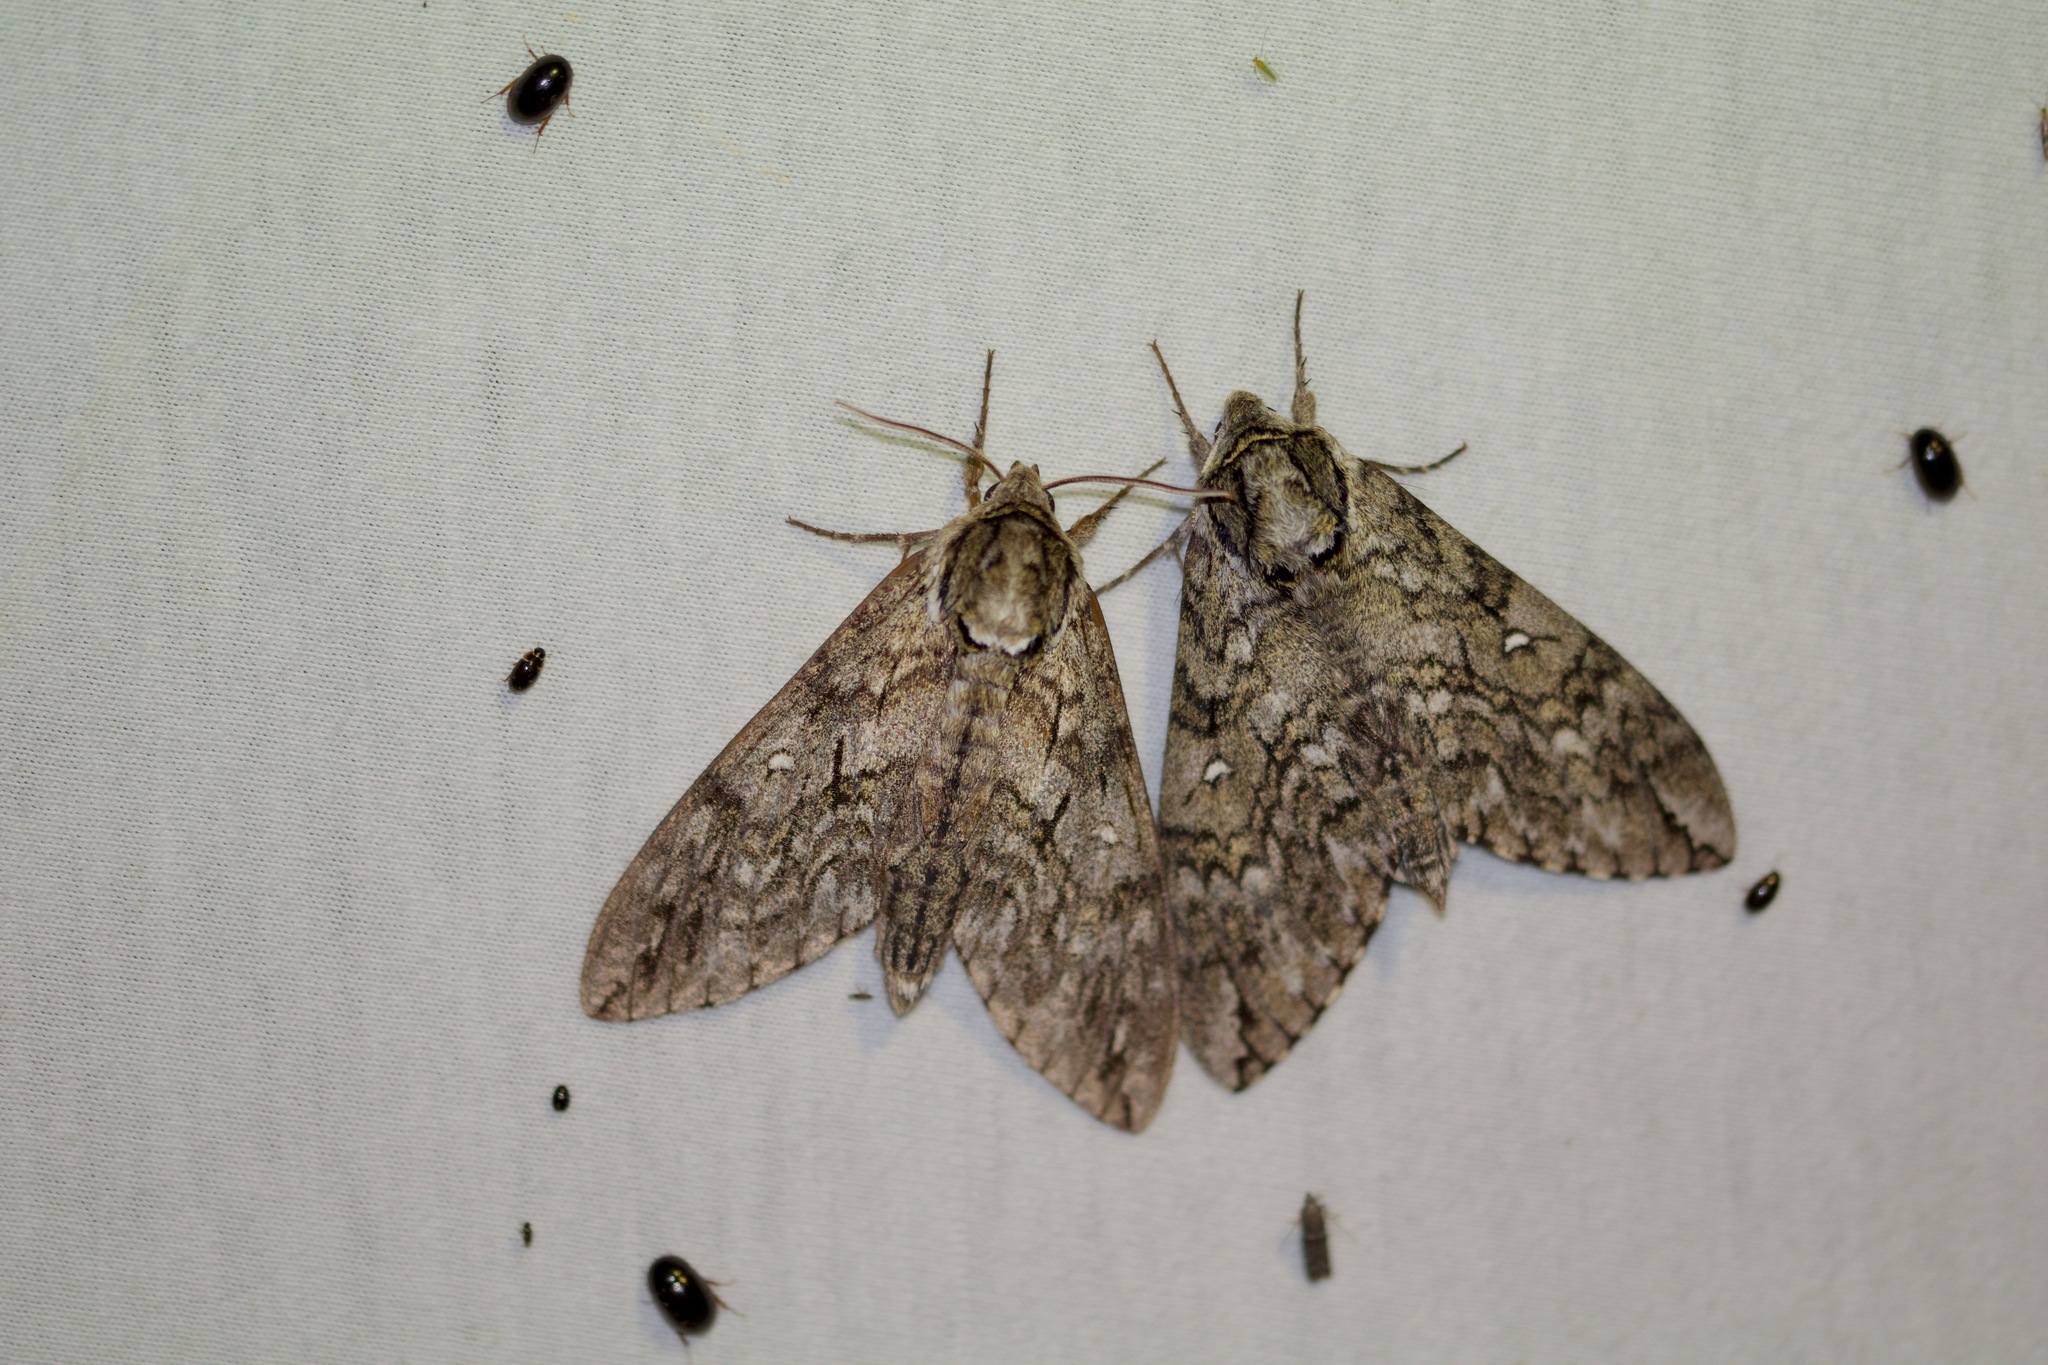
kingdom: Animalia
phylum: Arthropoda
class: Insecta
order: Lepidoptera
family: Sphingidae
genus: Ceratomia
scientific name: Ceratomia undulosa
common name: Waved sphinx
